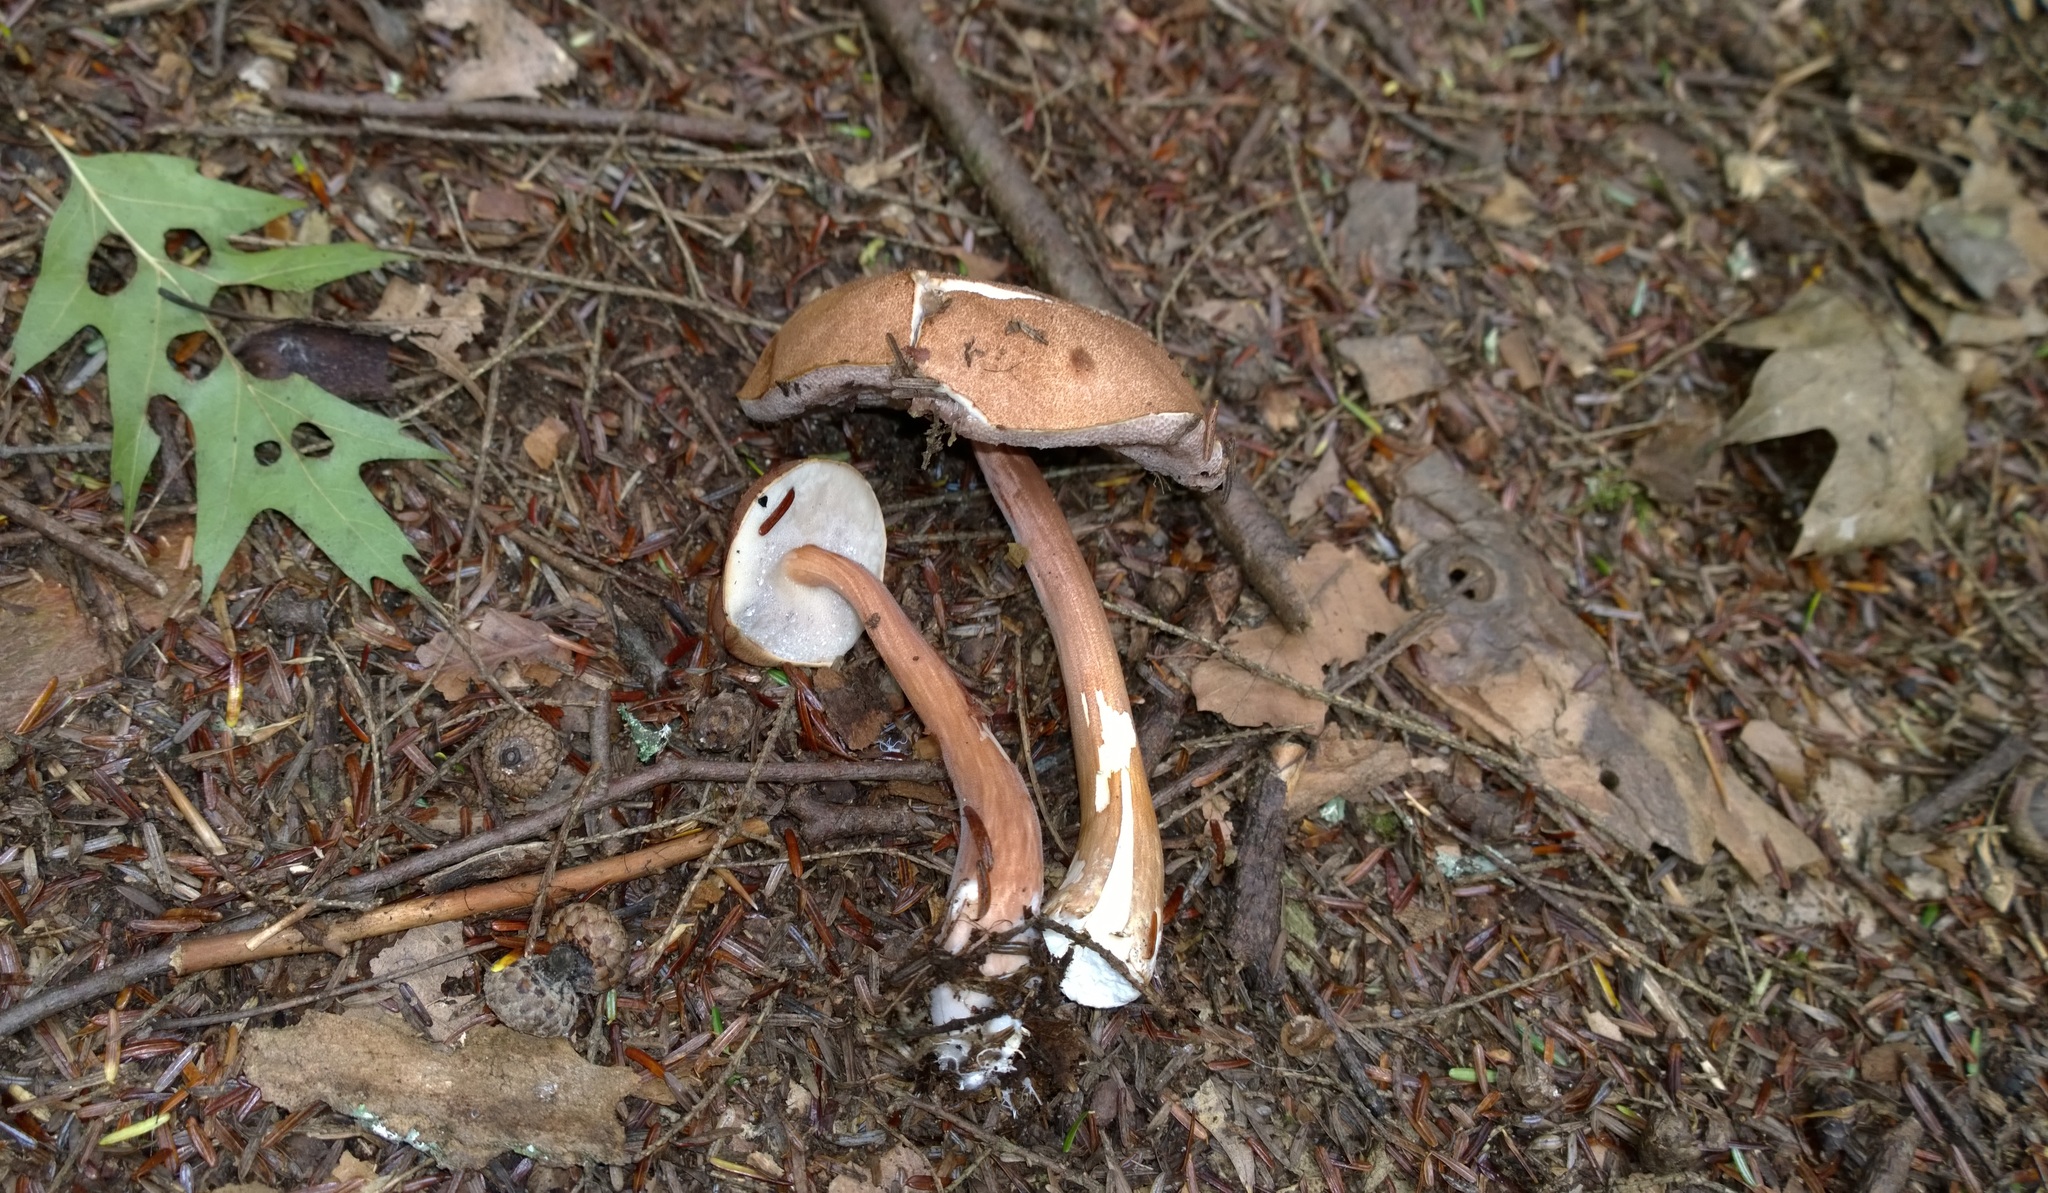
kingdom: Fungi
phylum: Basidiomycota
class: Agaricomycetes
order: Boletales
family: Boletaceae
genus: Austroboletus
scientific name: Austroboletus gracilis
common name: Graceful bolete
